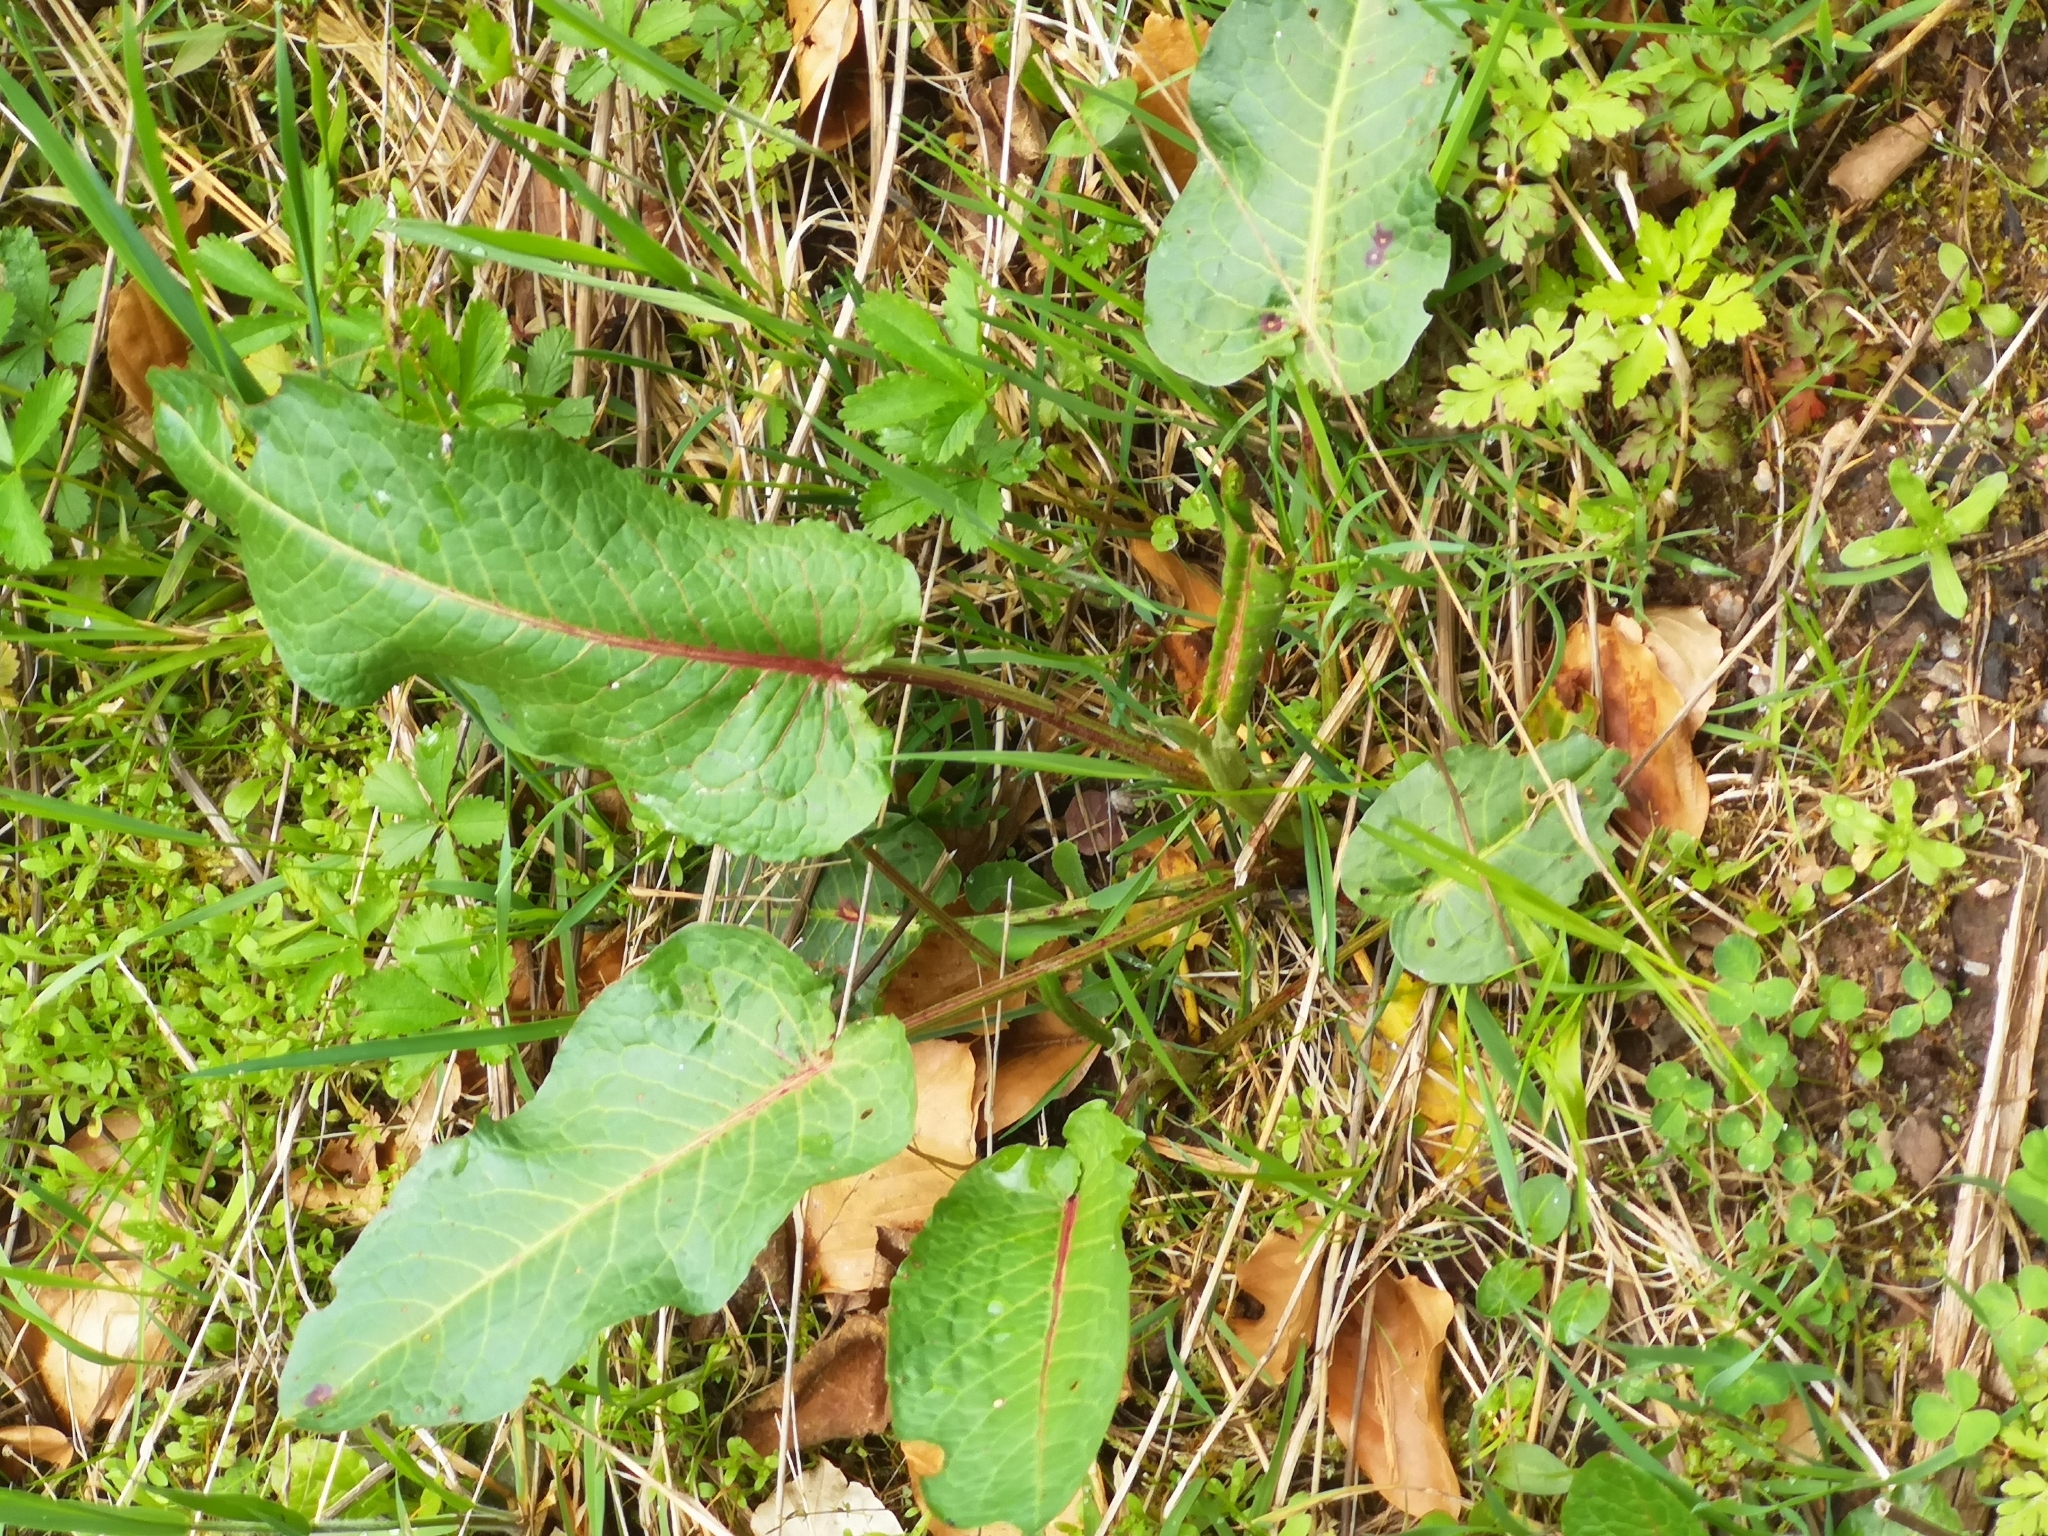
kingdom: Plantae
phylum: Tracheophyta
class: Magnoliopsida
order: Caryophyllales
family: Polygonaceae
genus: Rumex
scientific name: Rumex obtusifolius
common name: Bitter dock
